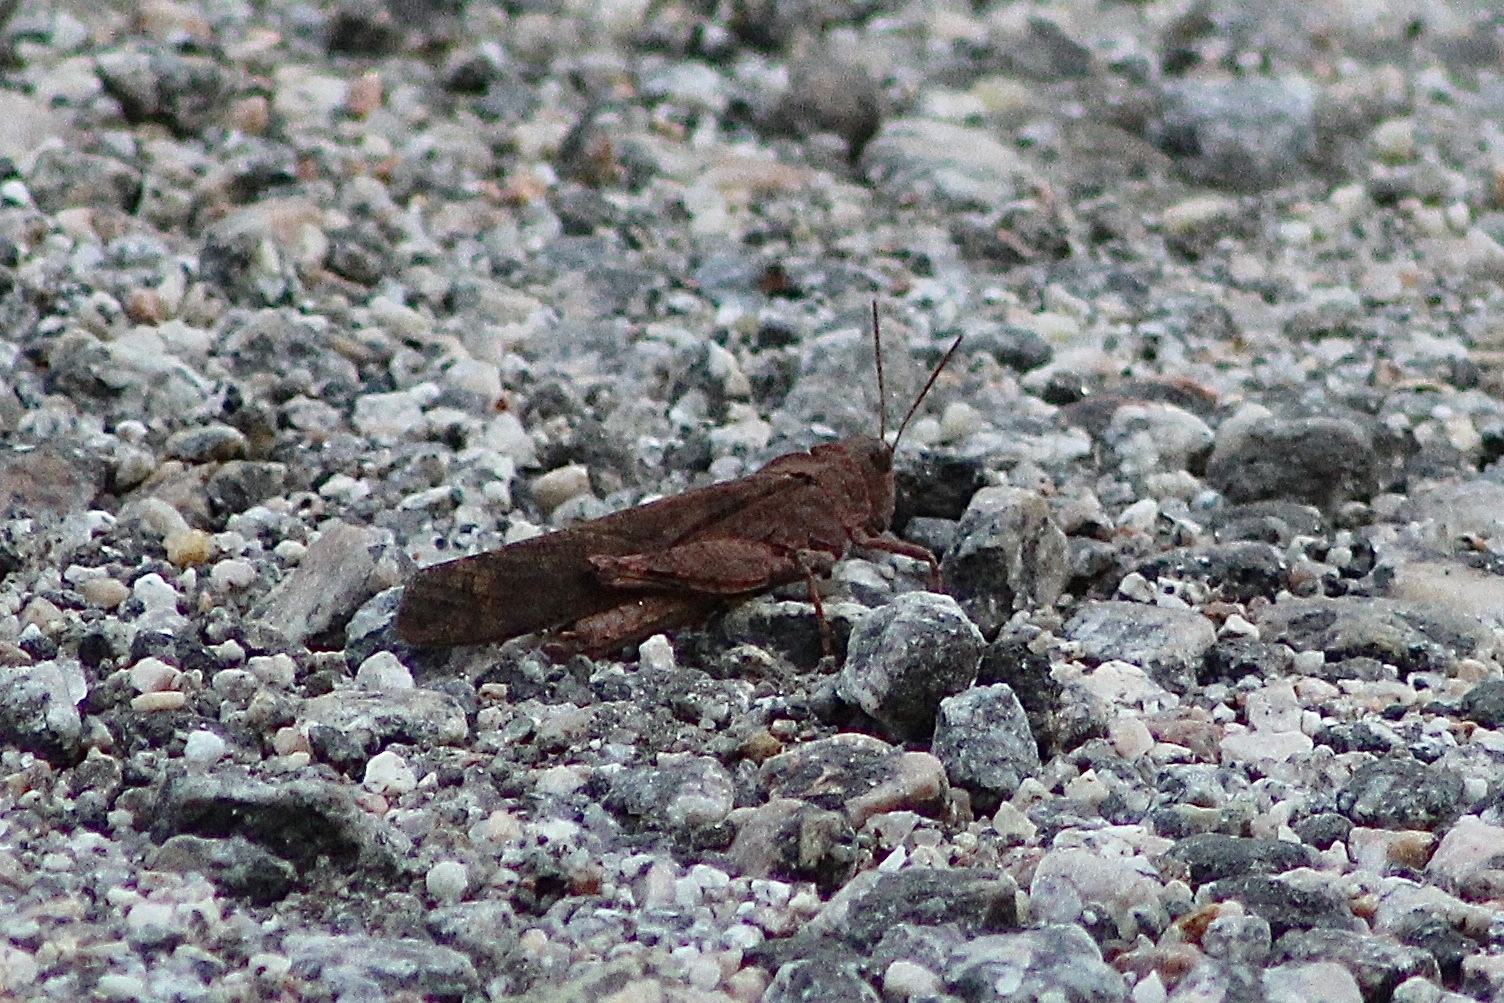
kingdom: Animalia
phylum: Arthropoda
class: Insecta
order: Orthoptera
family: Acrididae
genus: Dissosteira
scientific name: Dissosteira carolina
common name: Carolina grasshopper
